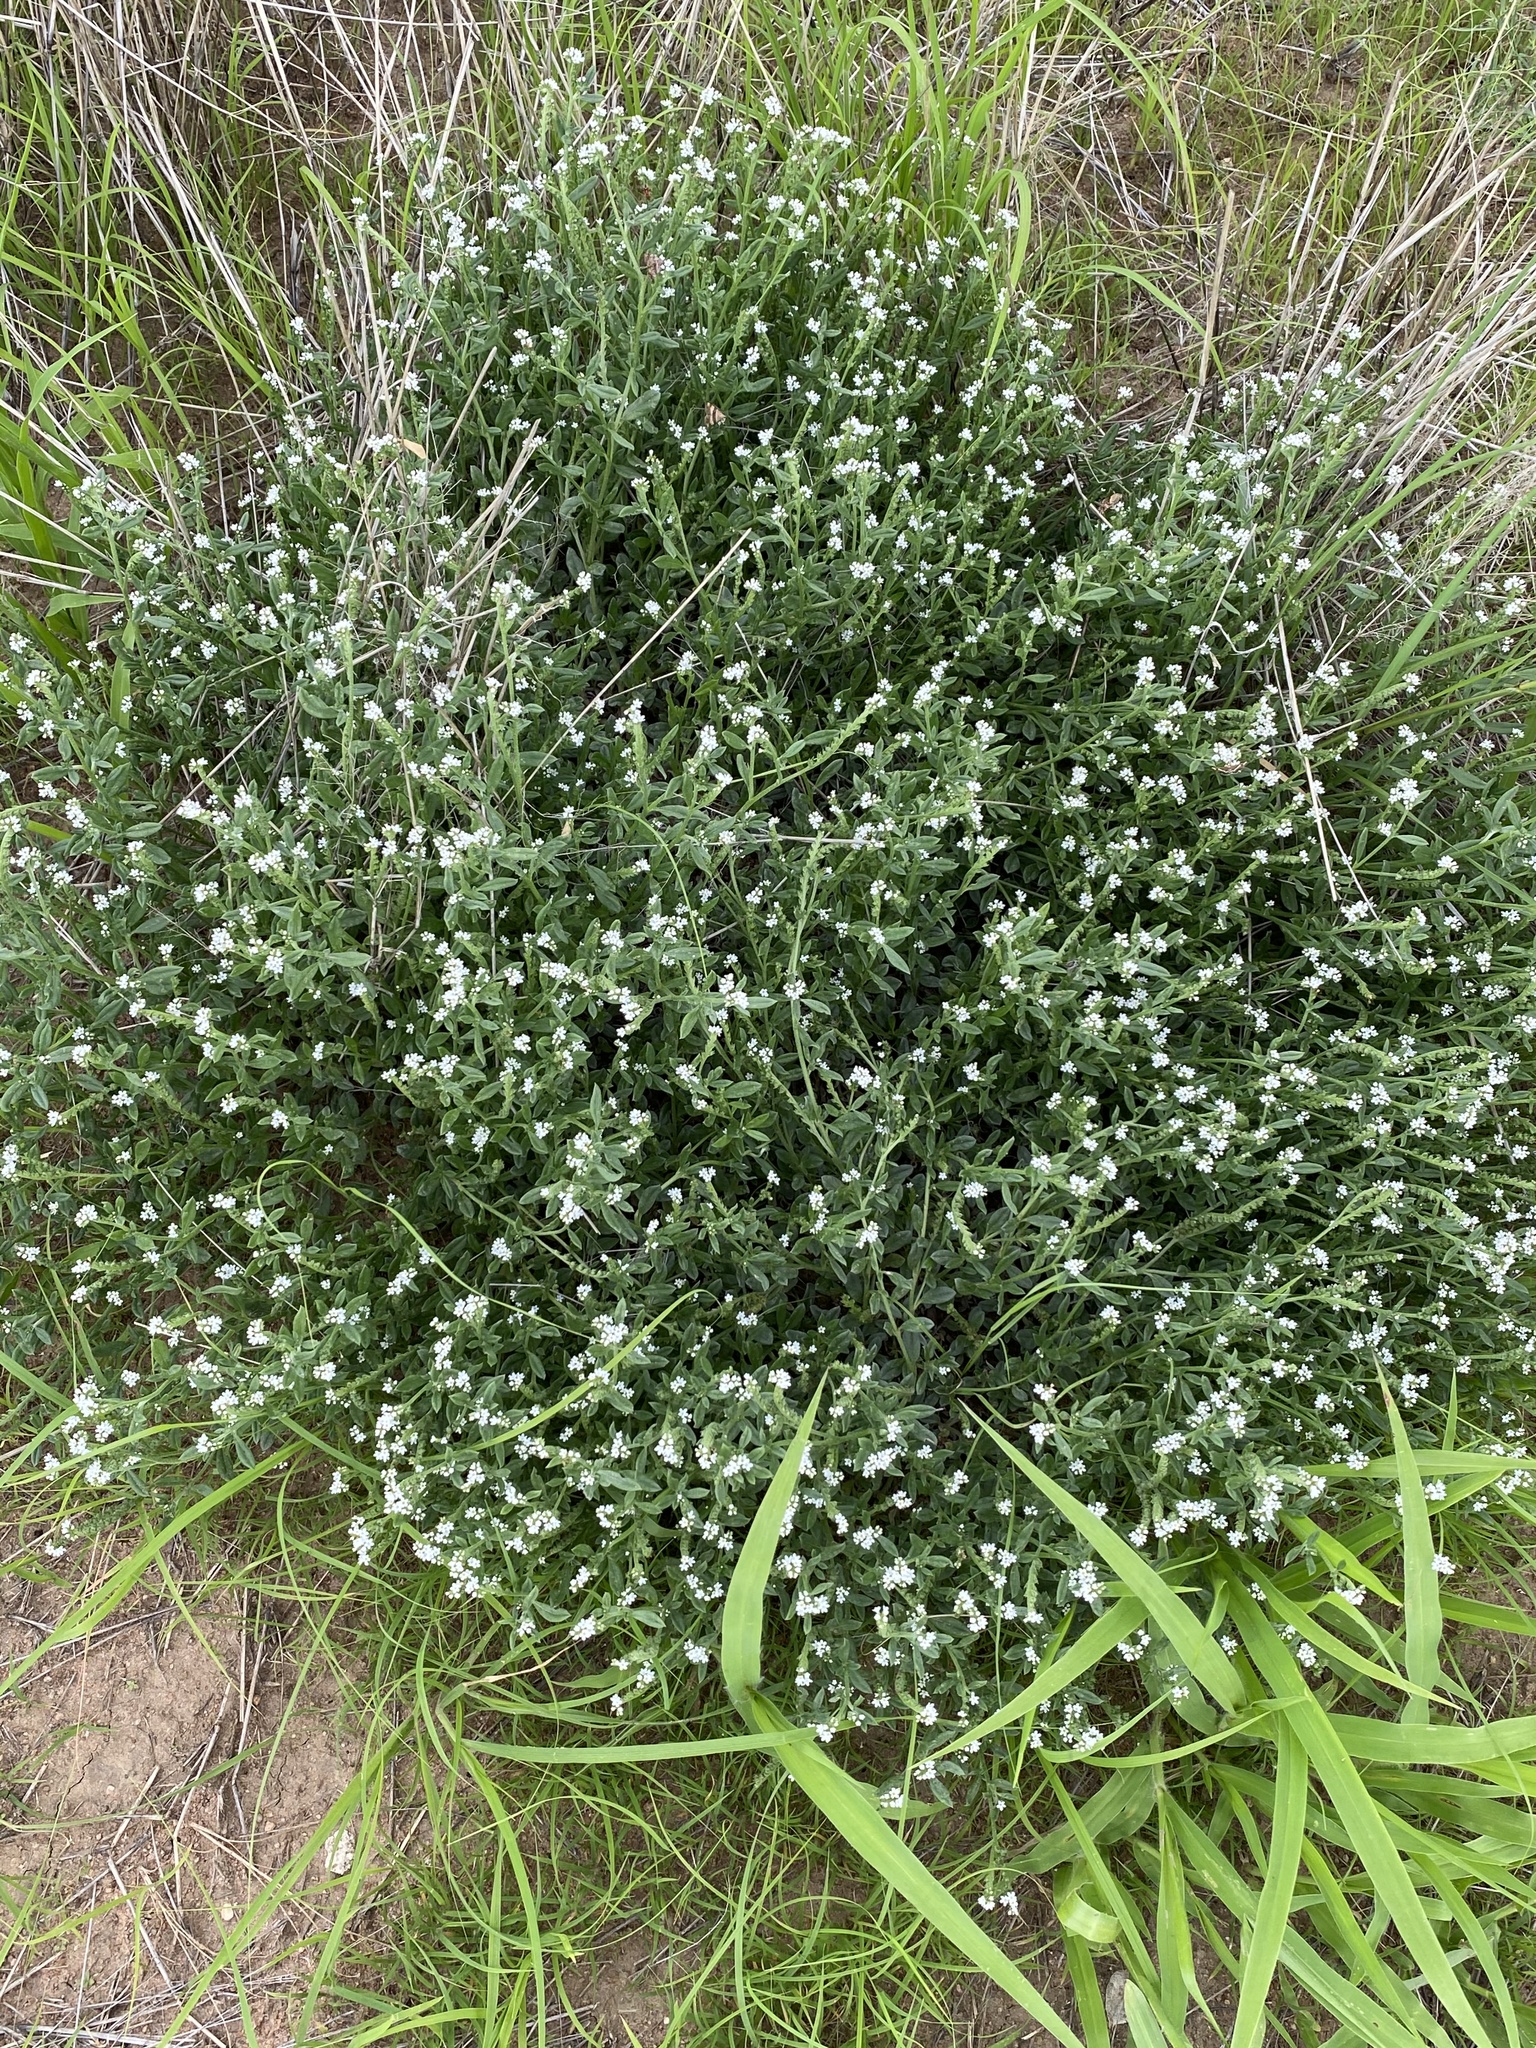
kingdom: Plantae
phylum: Tracheophyta
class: Magnoliopsida
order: Boraginales
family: Heliotropiaceae
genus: Heliotropium
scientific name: Heliotropium steudneri
